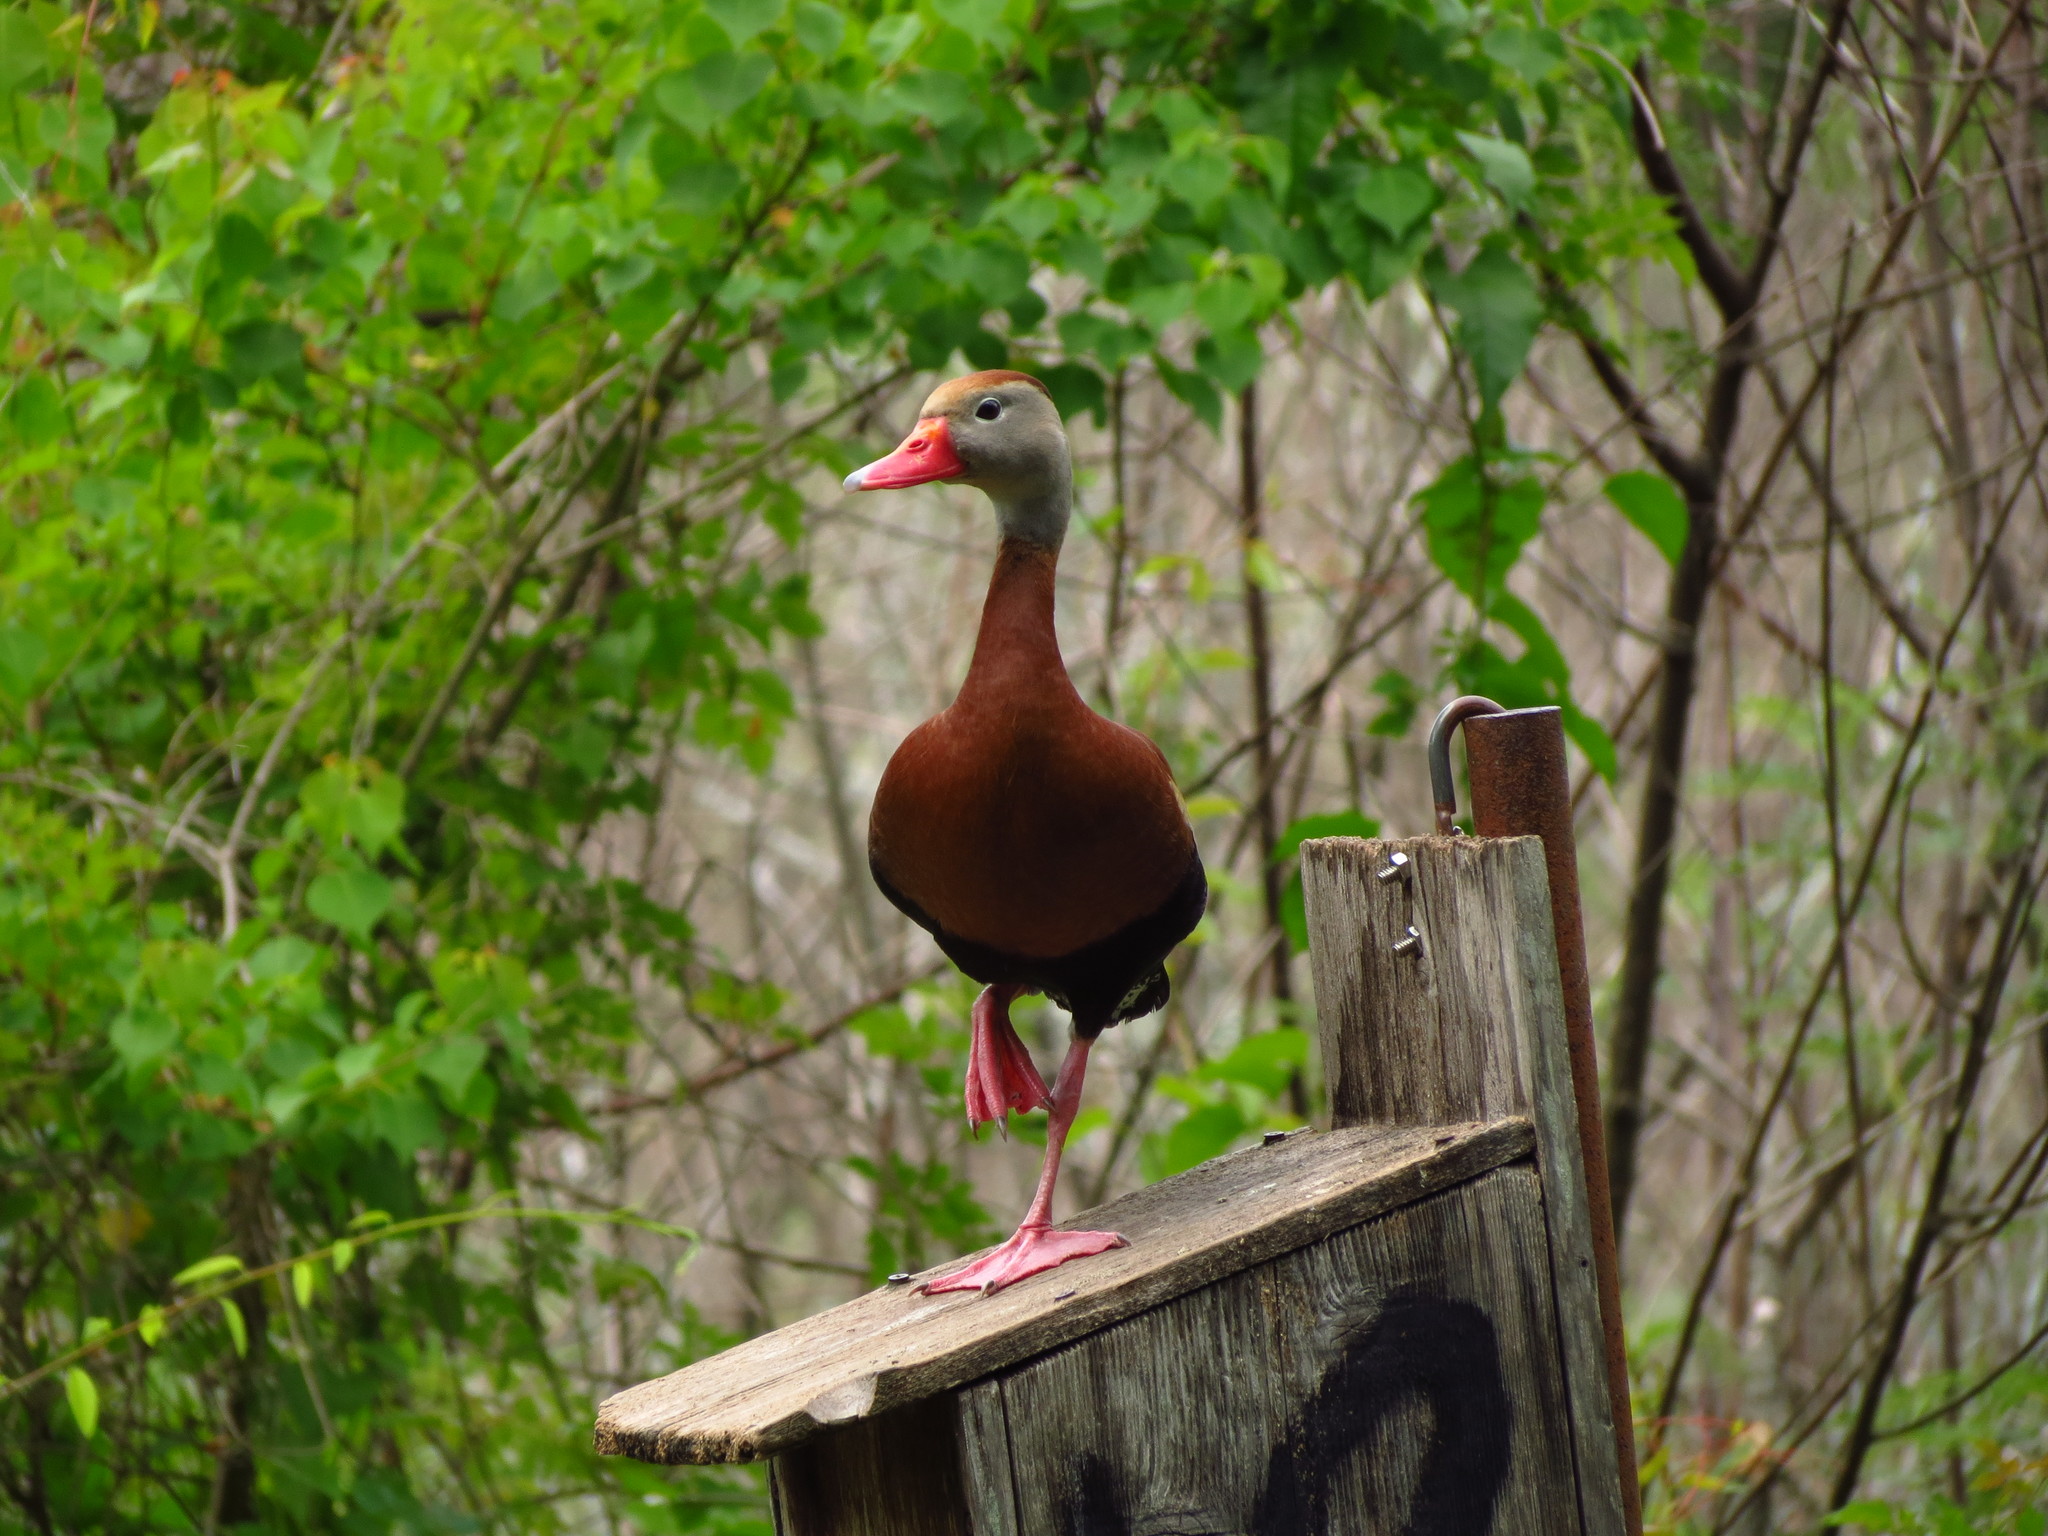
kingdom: Animalia
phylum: Chordata
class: Aves
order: Anseriformes
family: Anatidae
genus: Dendrocygna
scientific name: Dendrocygna autumnalis
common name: Black-bellied whistling duck
